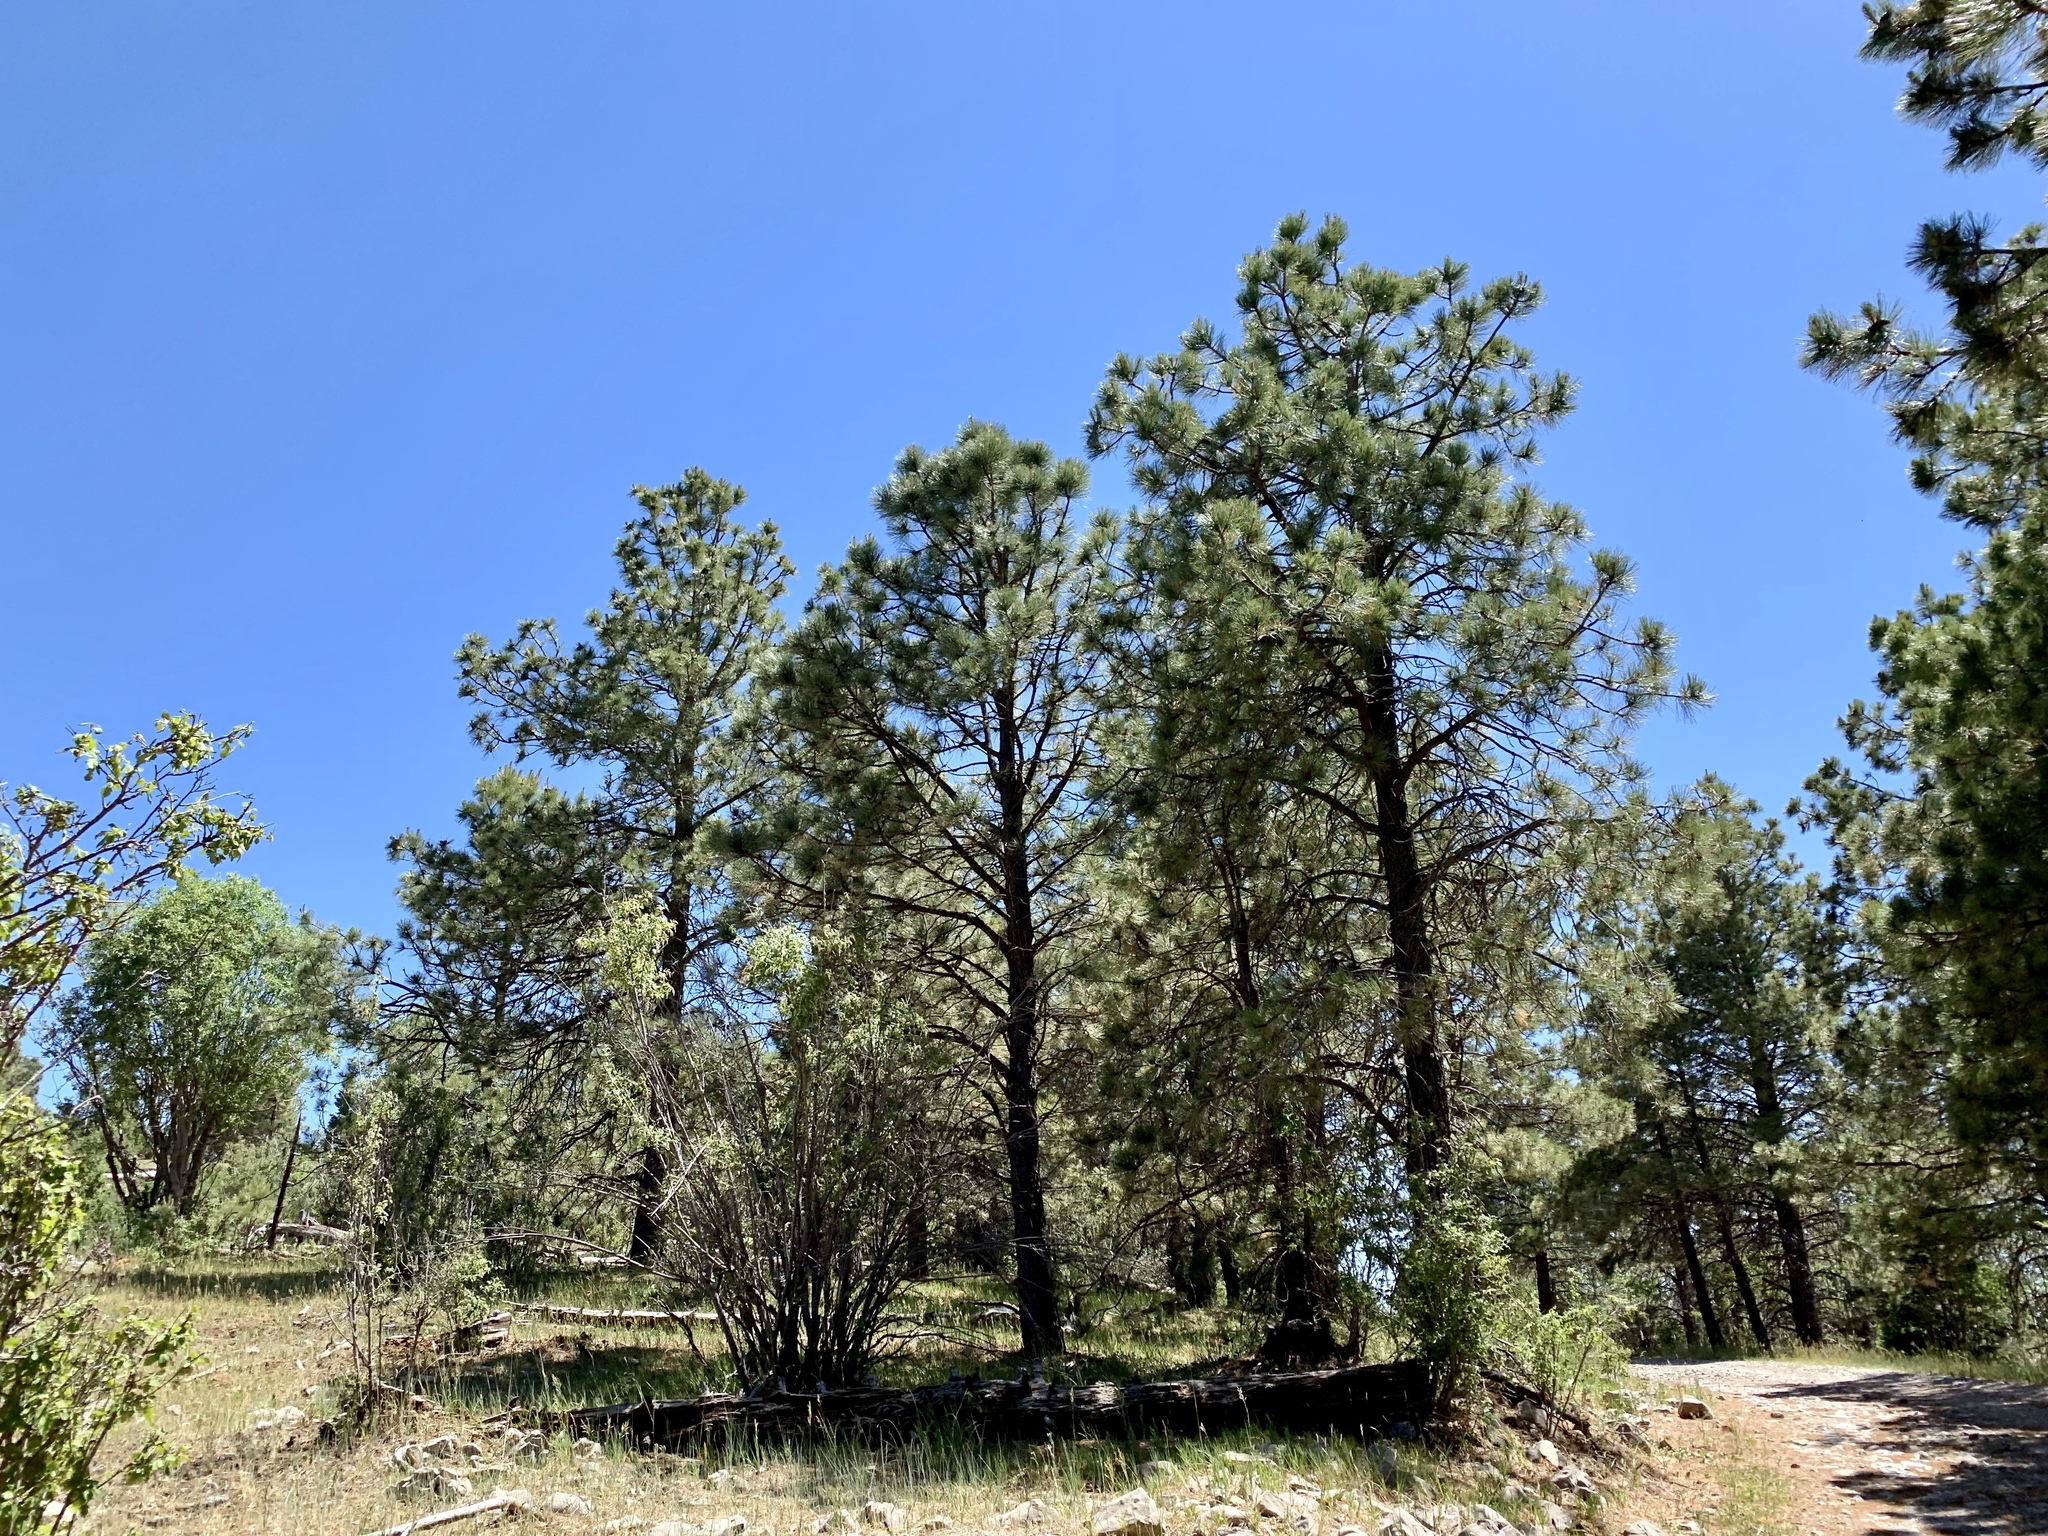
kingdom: Plantae
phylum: Tracheophyta
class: Pinopsida
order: Pinales
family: Pinaceae
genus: Pinus
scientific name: Pinus ponderosa
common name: Western yellow-pine
